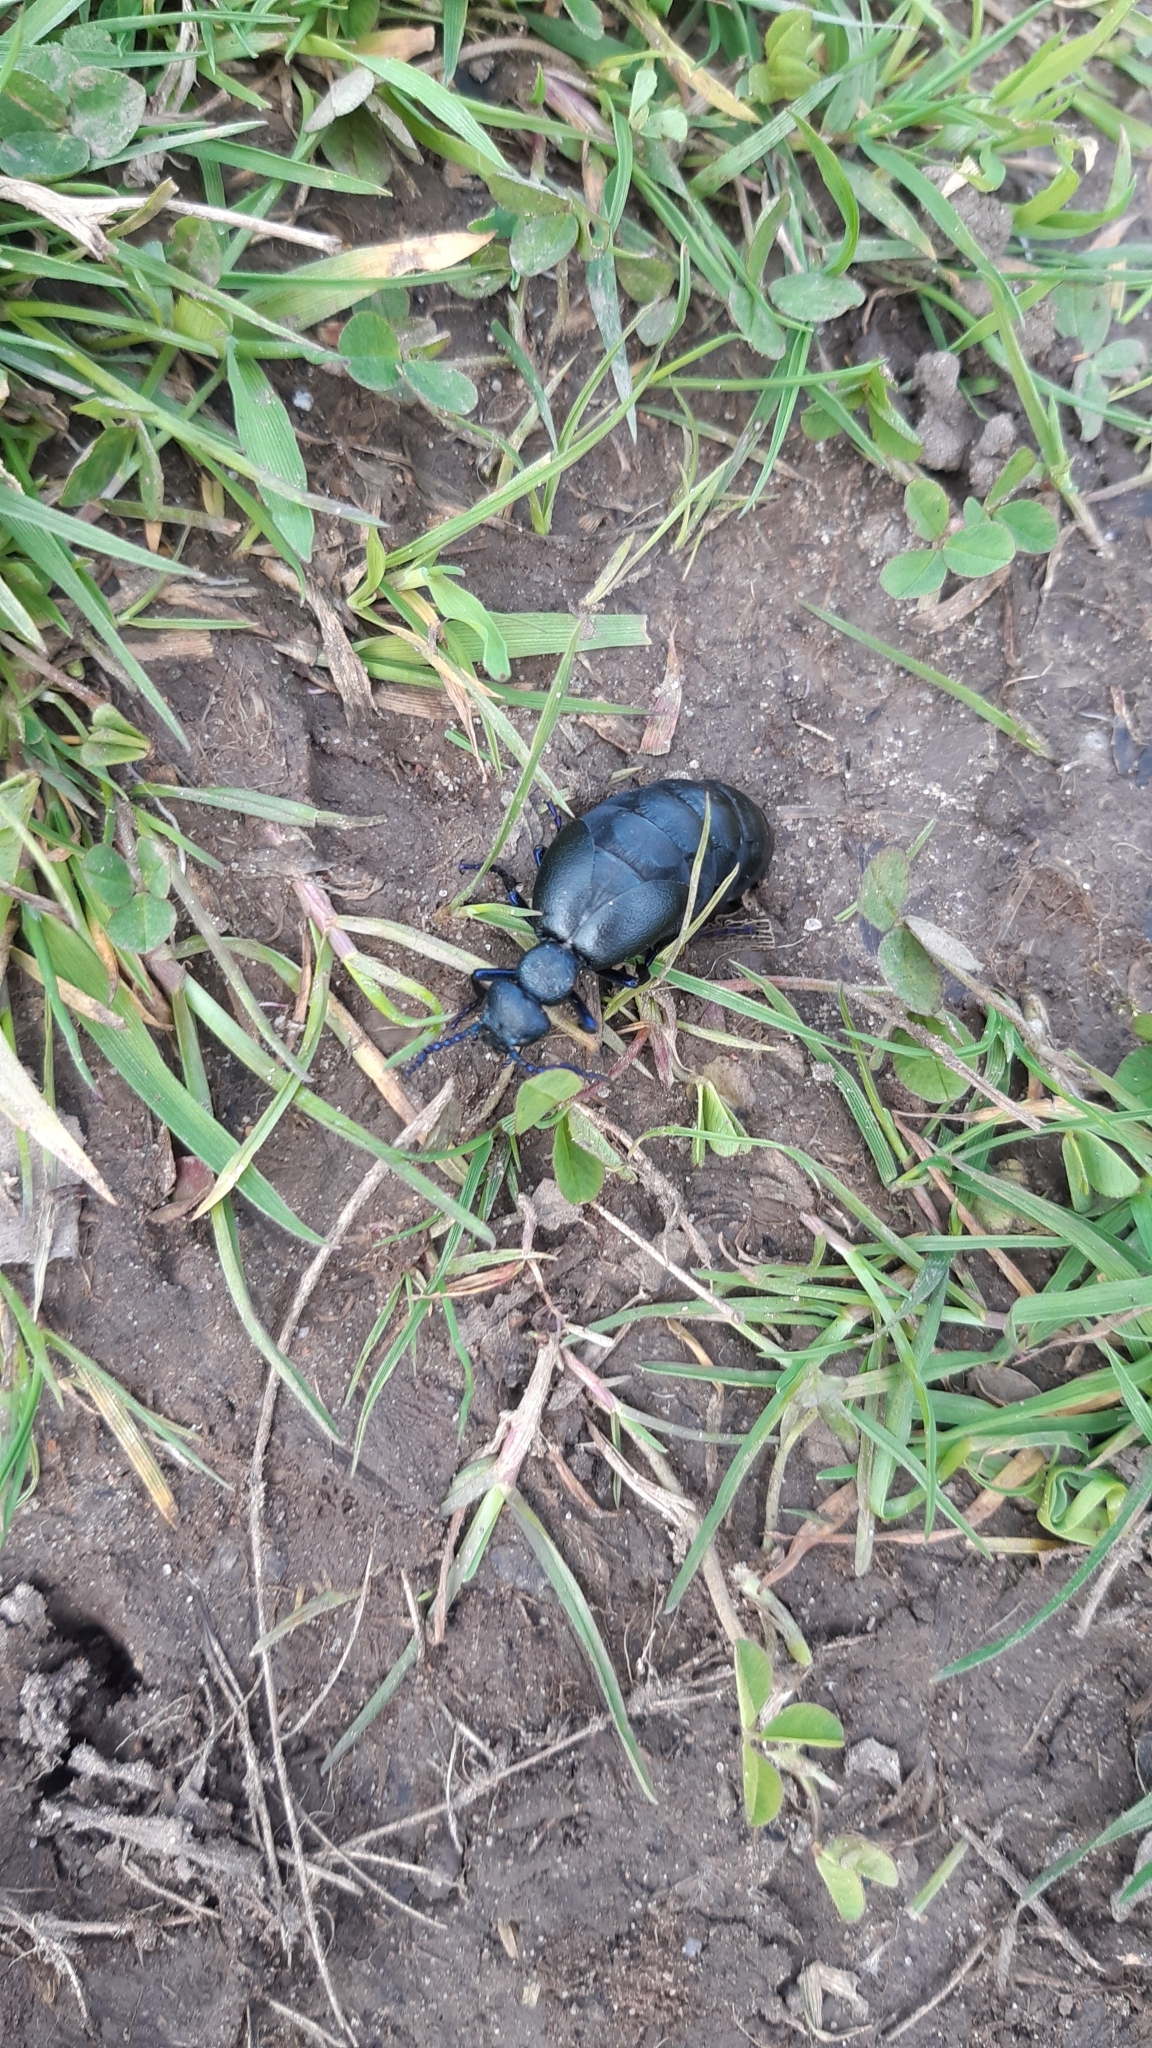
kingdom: Animalia
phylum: Arthropoda
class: Insecta
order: Coleoptera
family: Meloidae
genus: Meloe
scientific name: Meloe proscarabaeus
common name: Black oil-beetle
